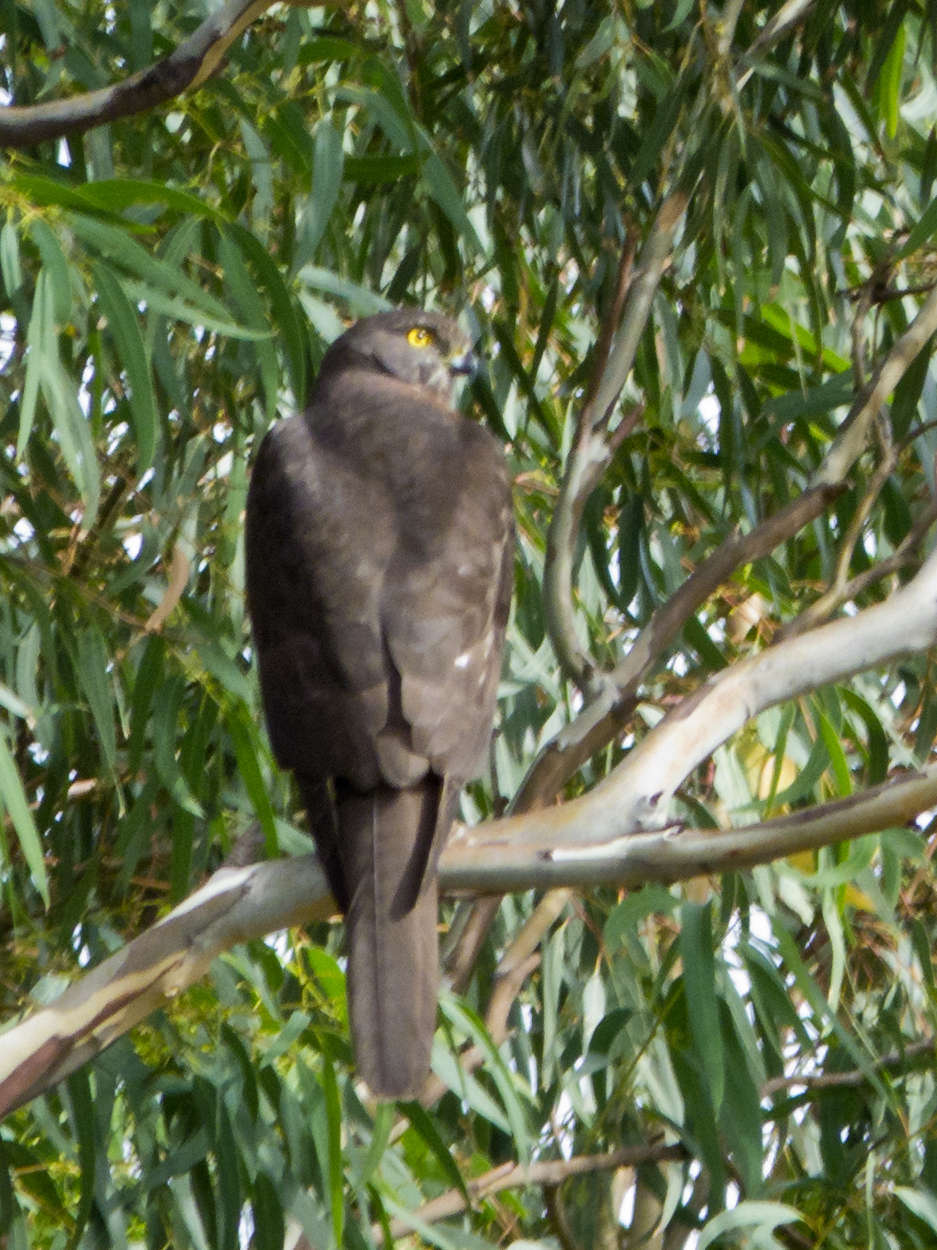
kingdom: Animalia
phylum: Chordata
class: Aves
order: Accipitriformes
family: Accipitridae
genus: Accipiter
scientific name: Accipiter fasciatus
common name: Brown goshawk
